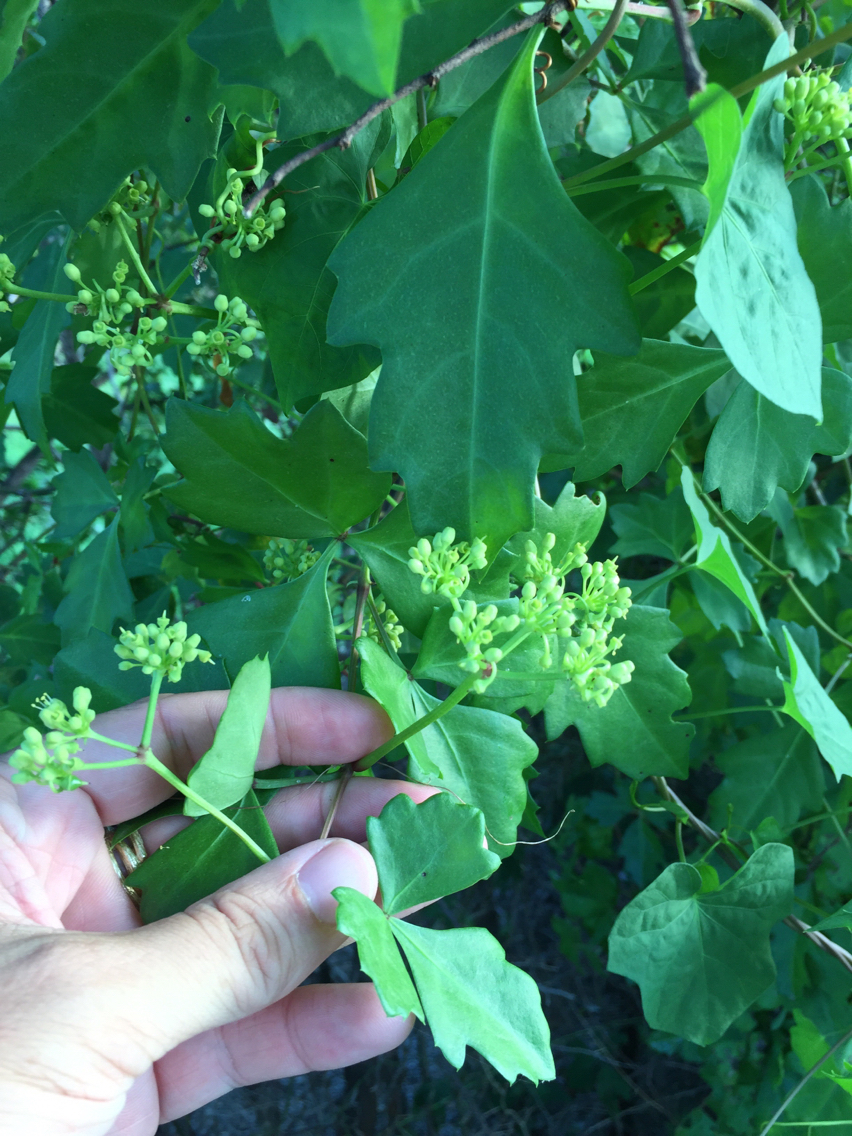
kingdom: Plantae
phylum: Tracheophyta
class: Magnoliopsida
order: Vitales
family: Vitaceae
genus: Cissus
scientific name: Cissus trifoliata
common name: Vine-sorrel
